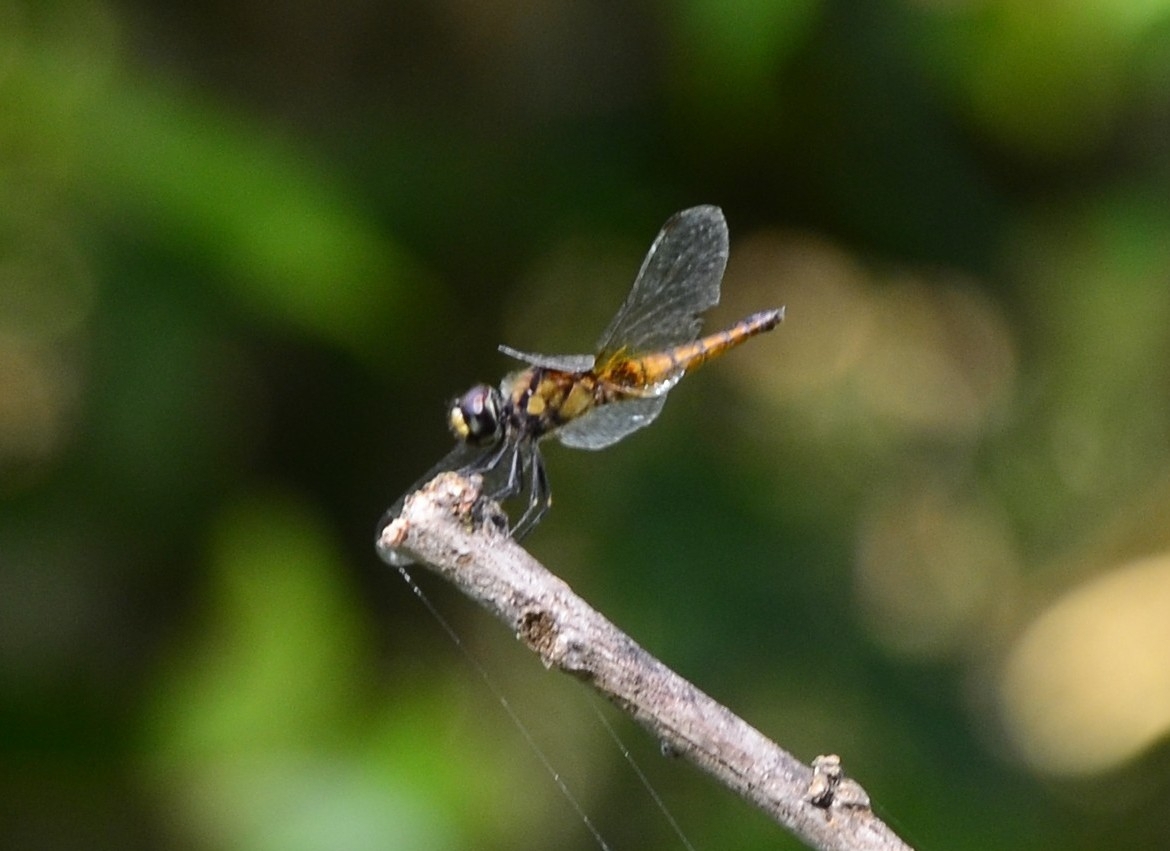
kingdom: Animalia
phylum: Arthropoda
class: Insecta
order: Odonata
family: Libellulidae
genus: Aethriamanta
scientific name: Aethriamanta brevipennis
